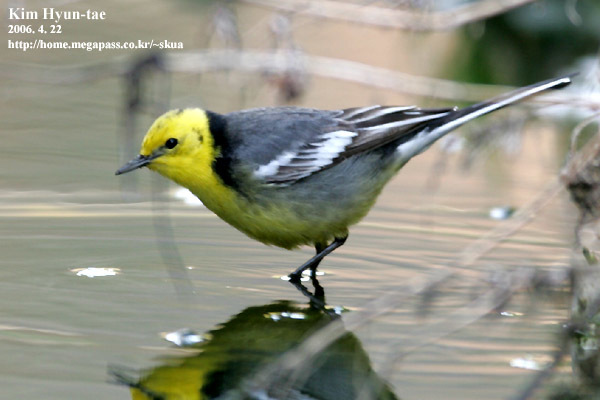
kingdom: Animalia
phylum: Chordata
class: Aves
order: Passeriformes
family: Motacillidae
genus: Motacilla
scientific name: Motacilla citreola
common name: Citrine wagtail
